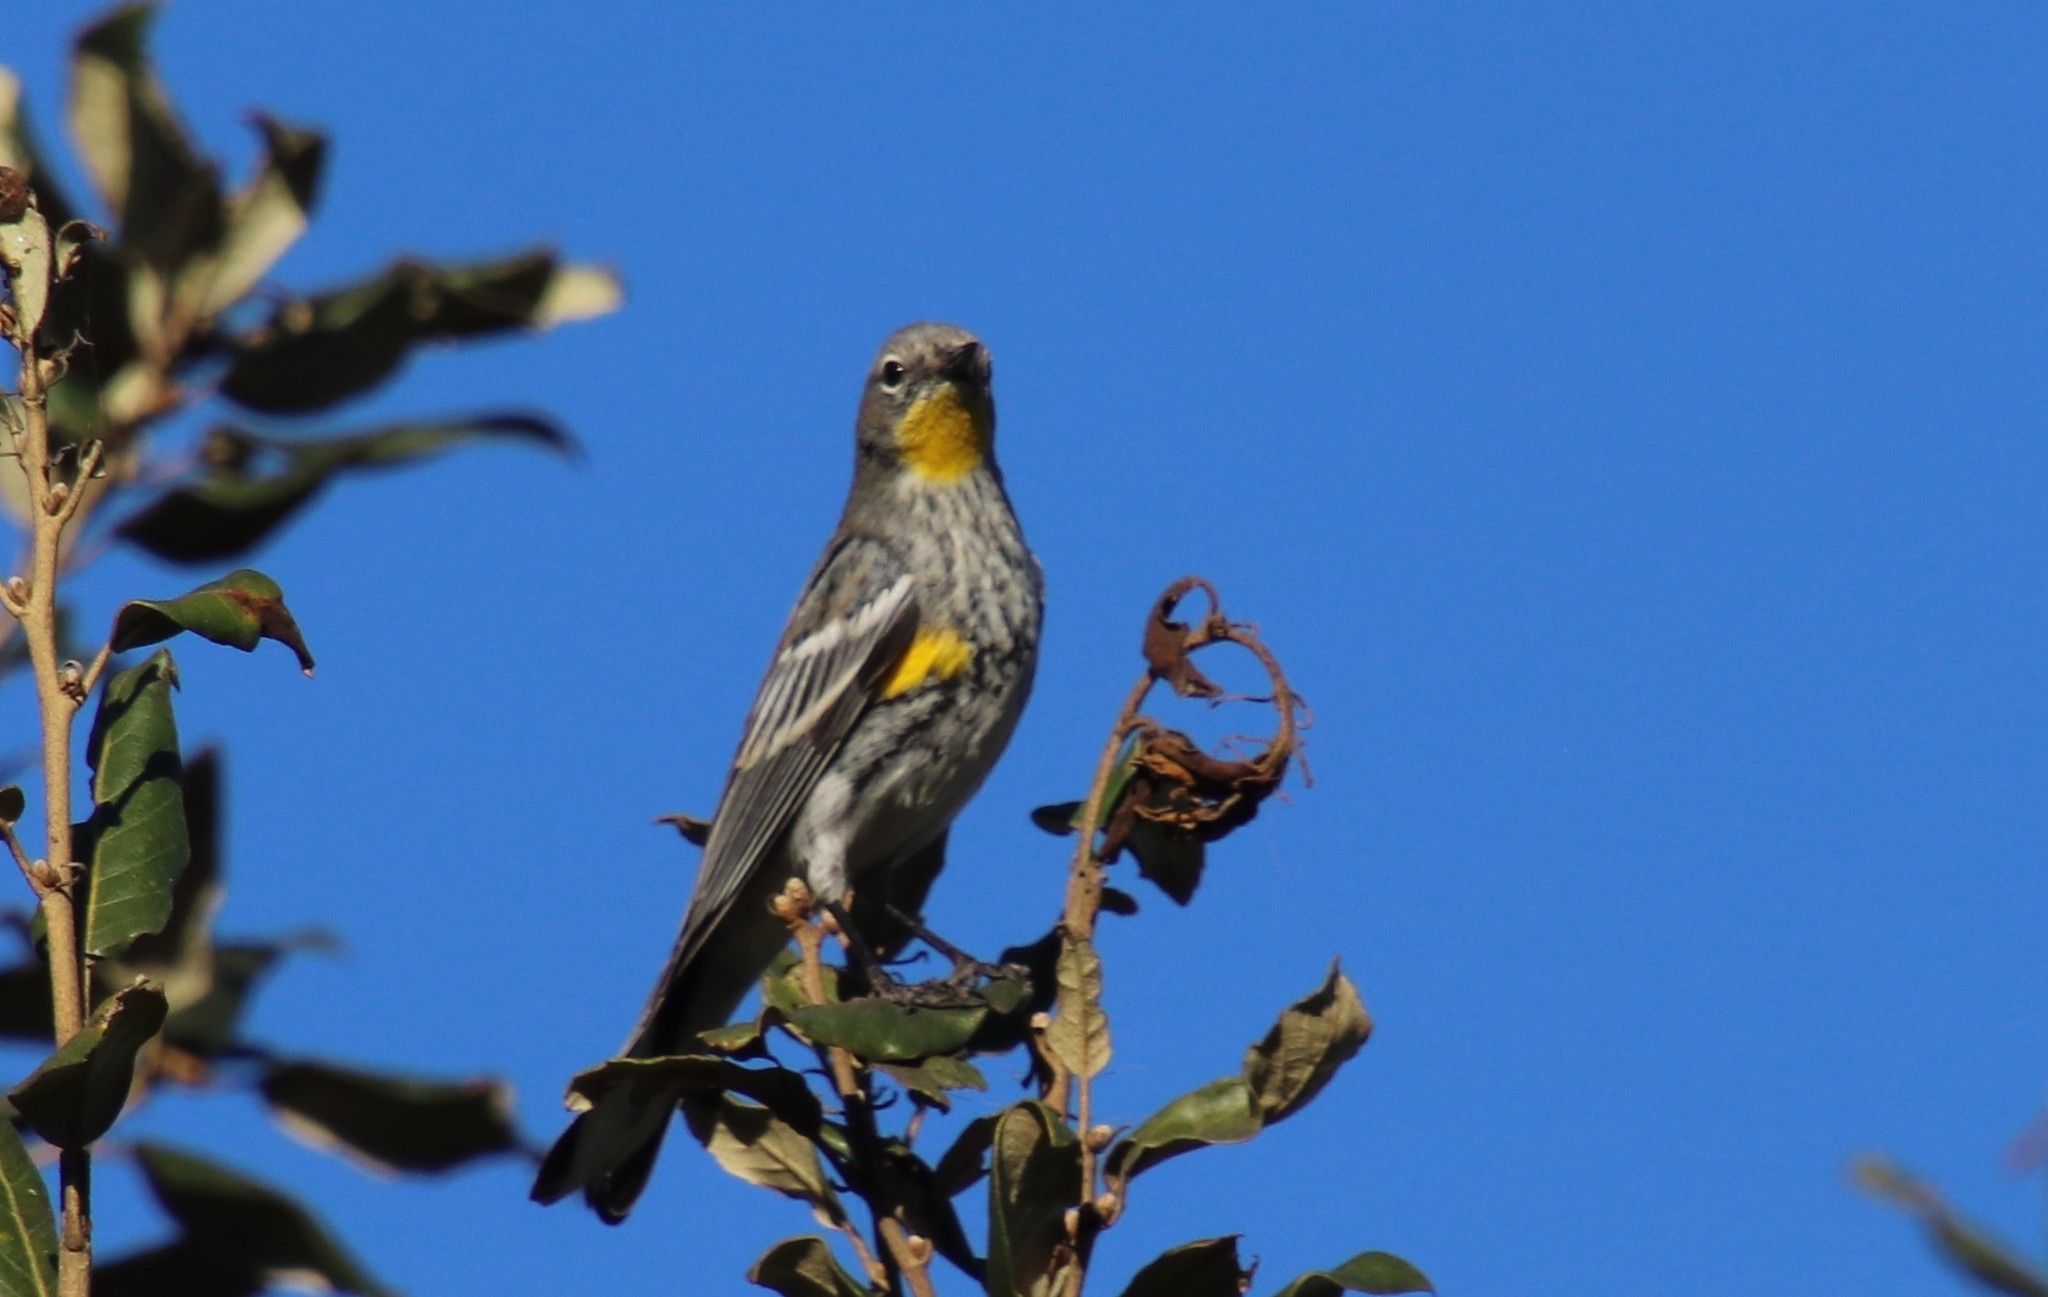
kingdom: Animalia
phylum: Chordata
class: Aves
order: Passeriformes
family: Parulidae
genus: Setophaga
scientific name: Setophaga auduboni
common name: Audubon's warbler
